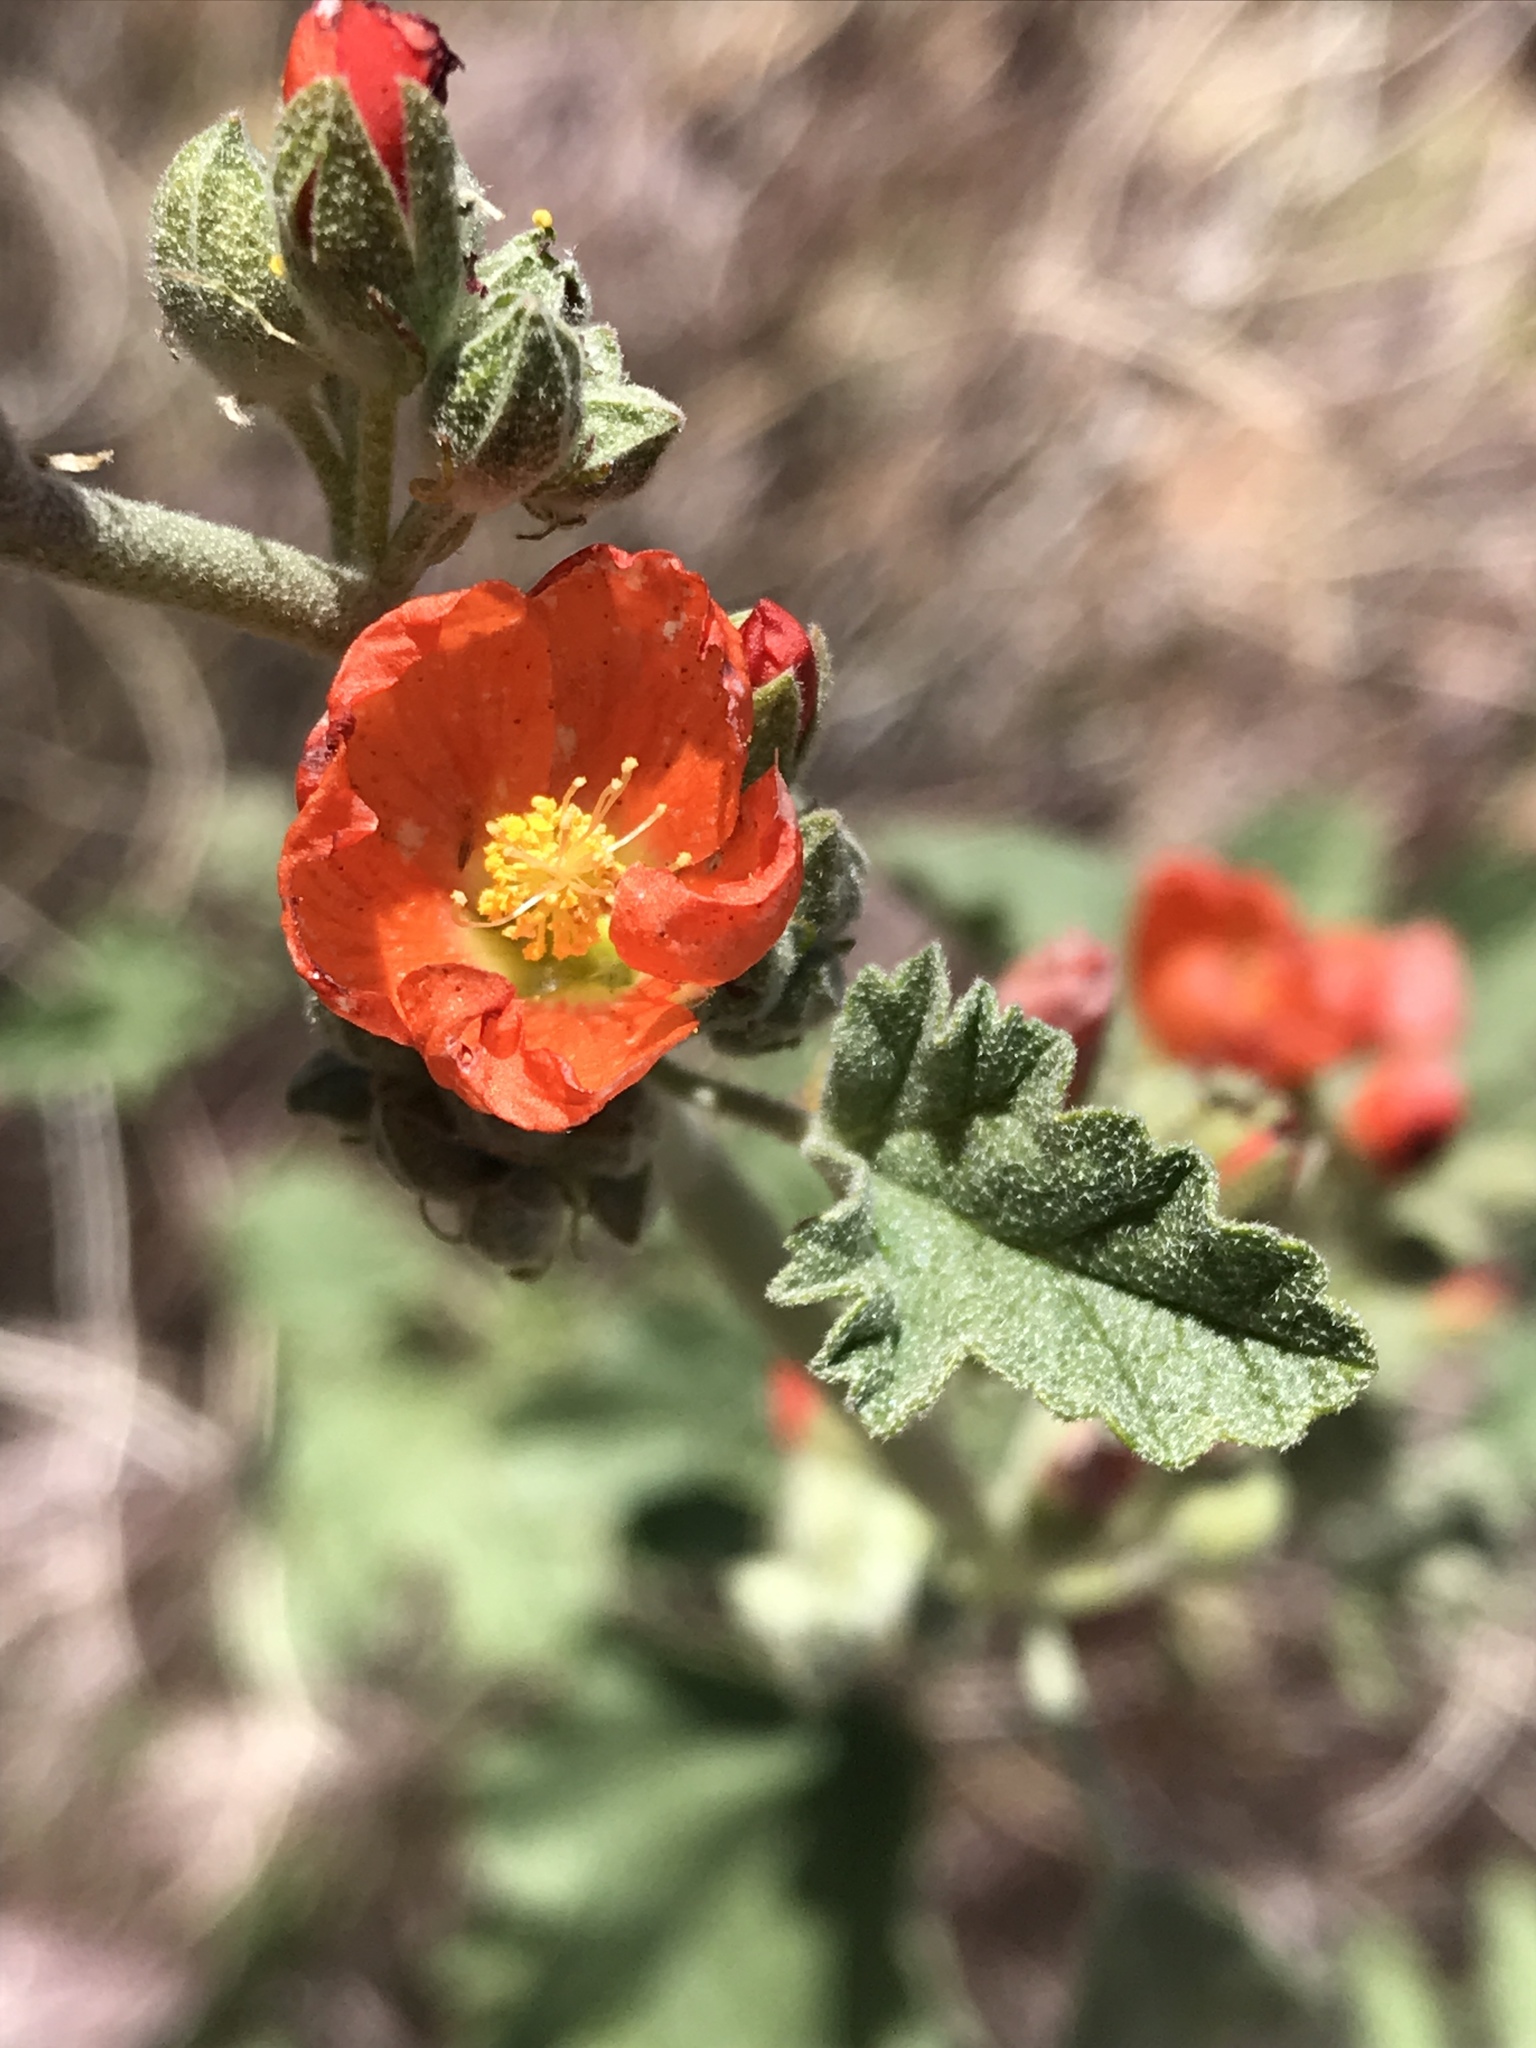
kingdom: Plantae
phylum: Tracheophyta
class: Magnoliopsida
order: Malvales
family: Malvaceae
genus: Sphaeralcea
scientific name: Sphaeralcea parvifolia
